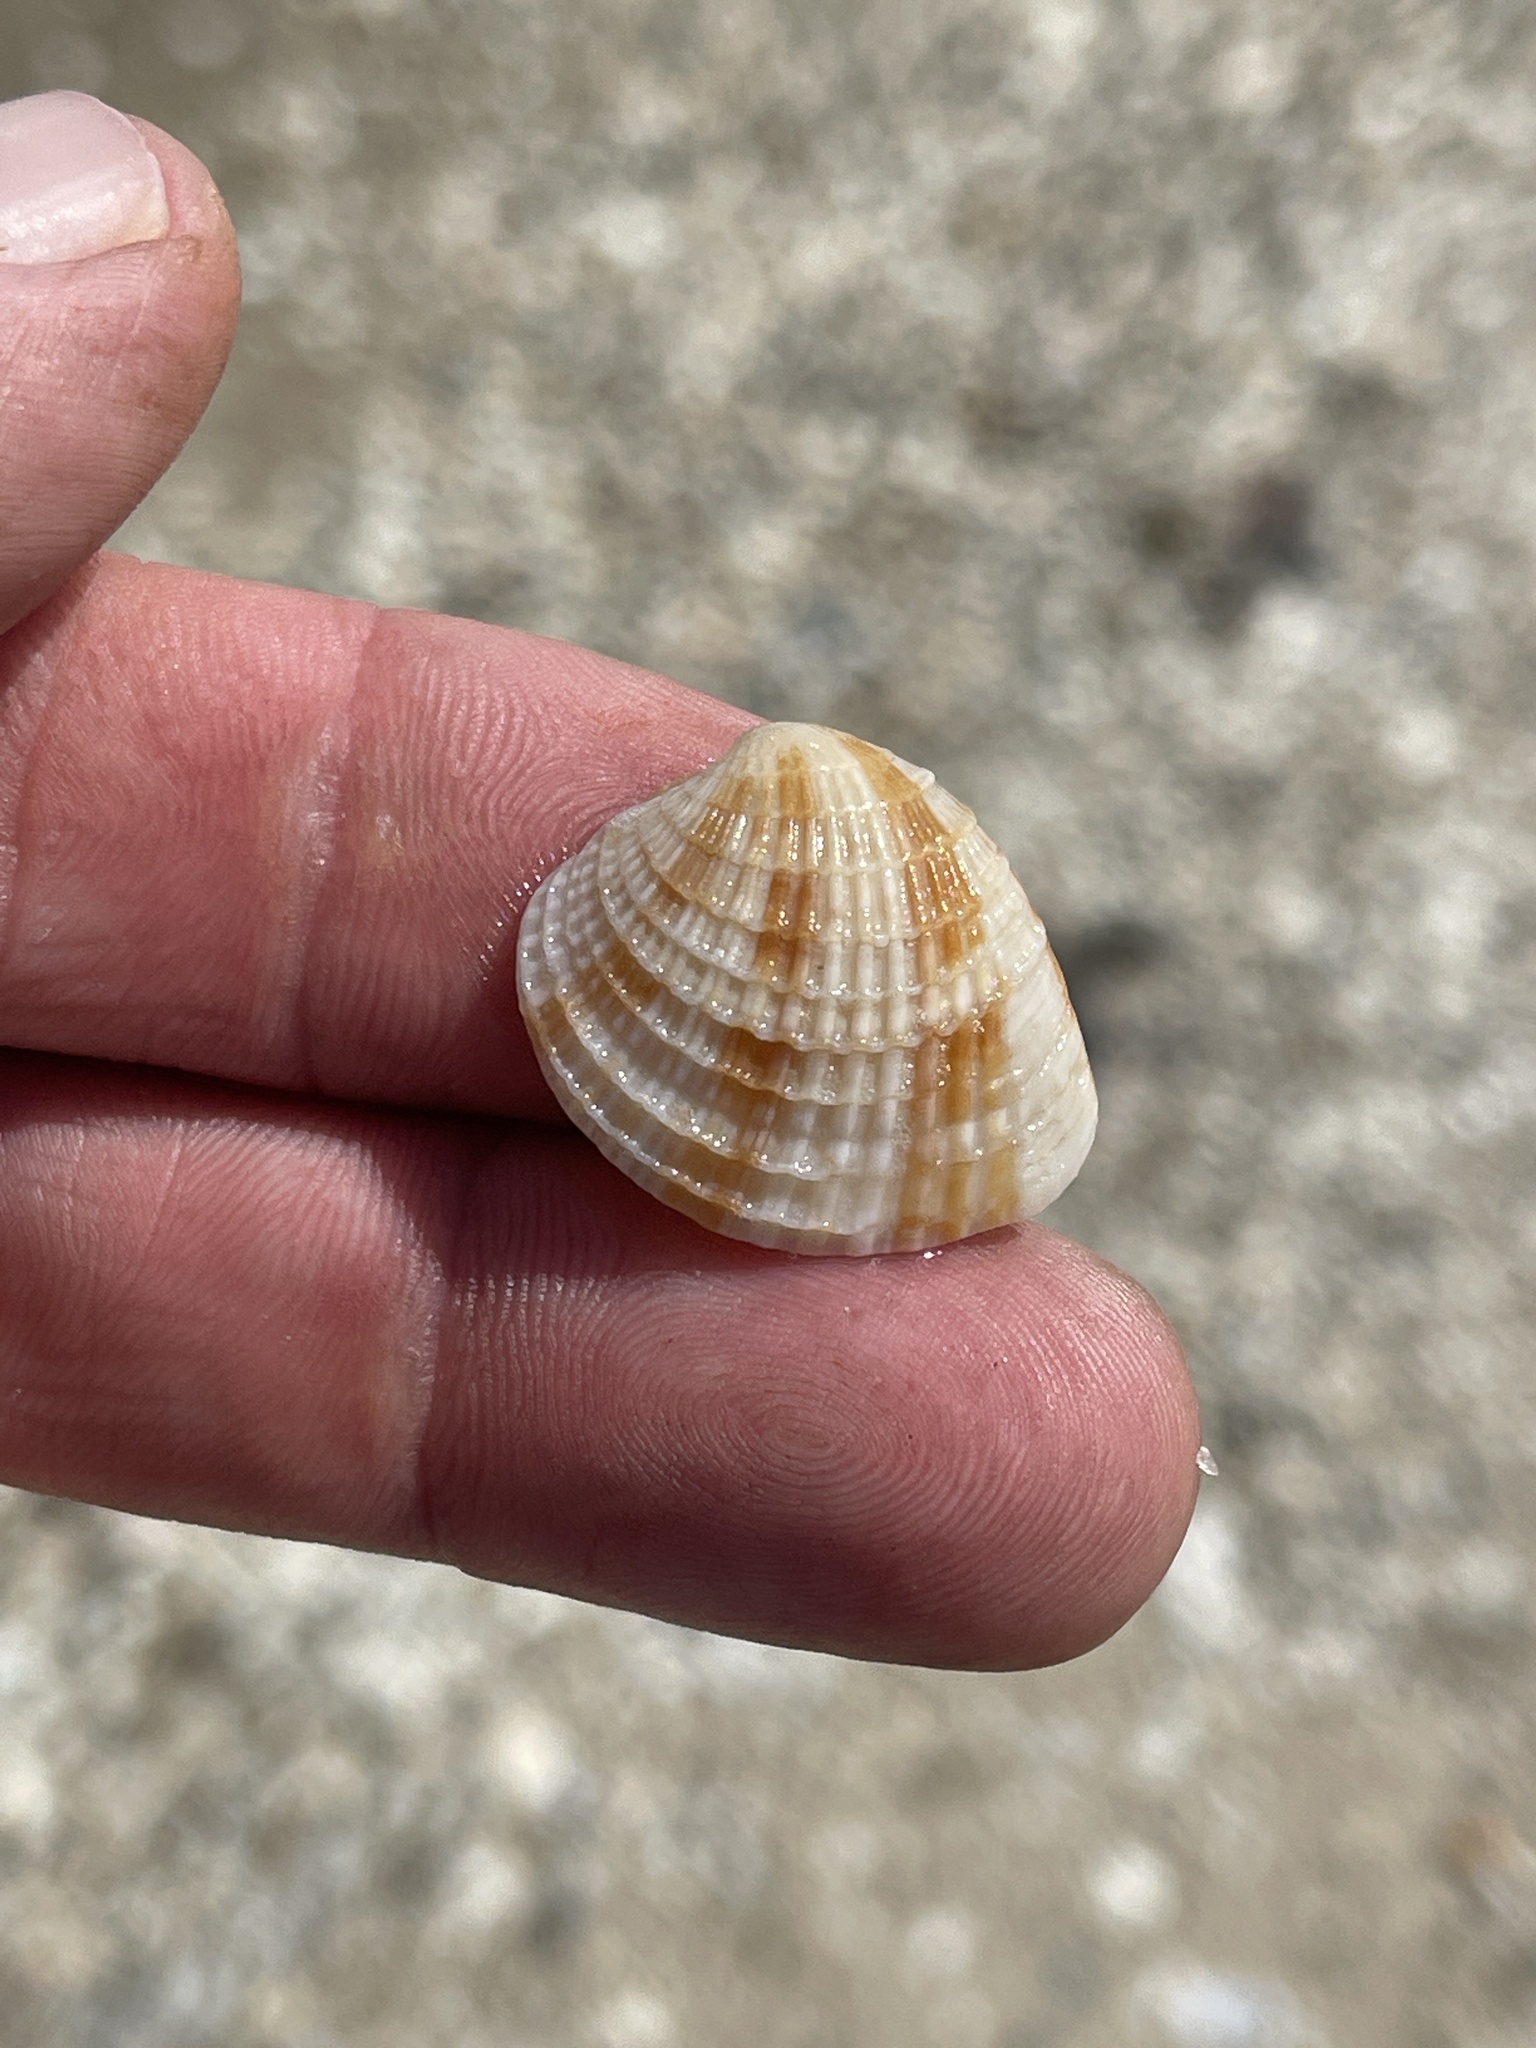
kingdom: Animalia
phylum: Mollusca
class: Bivalvia
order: Venerida
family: Veneridae
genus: Chione
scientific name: Chione elevata
